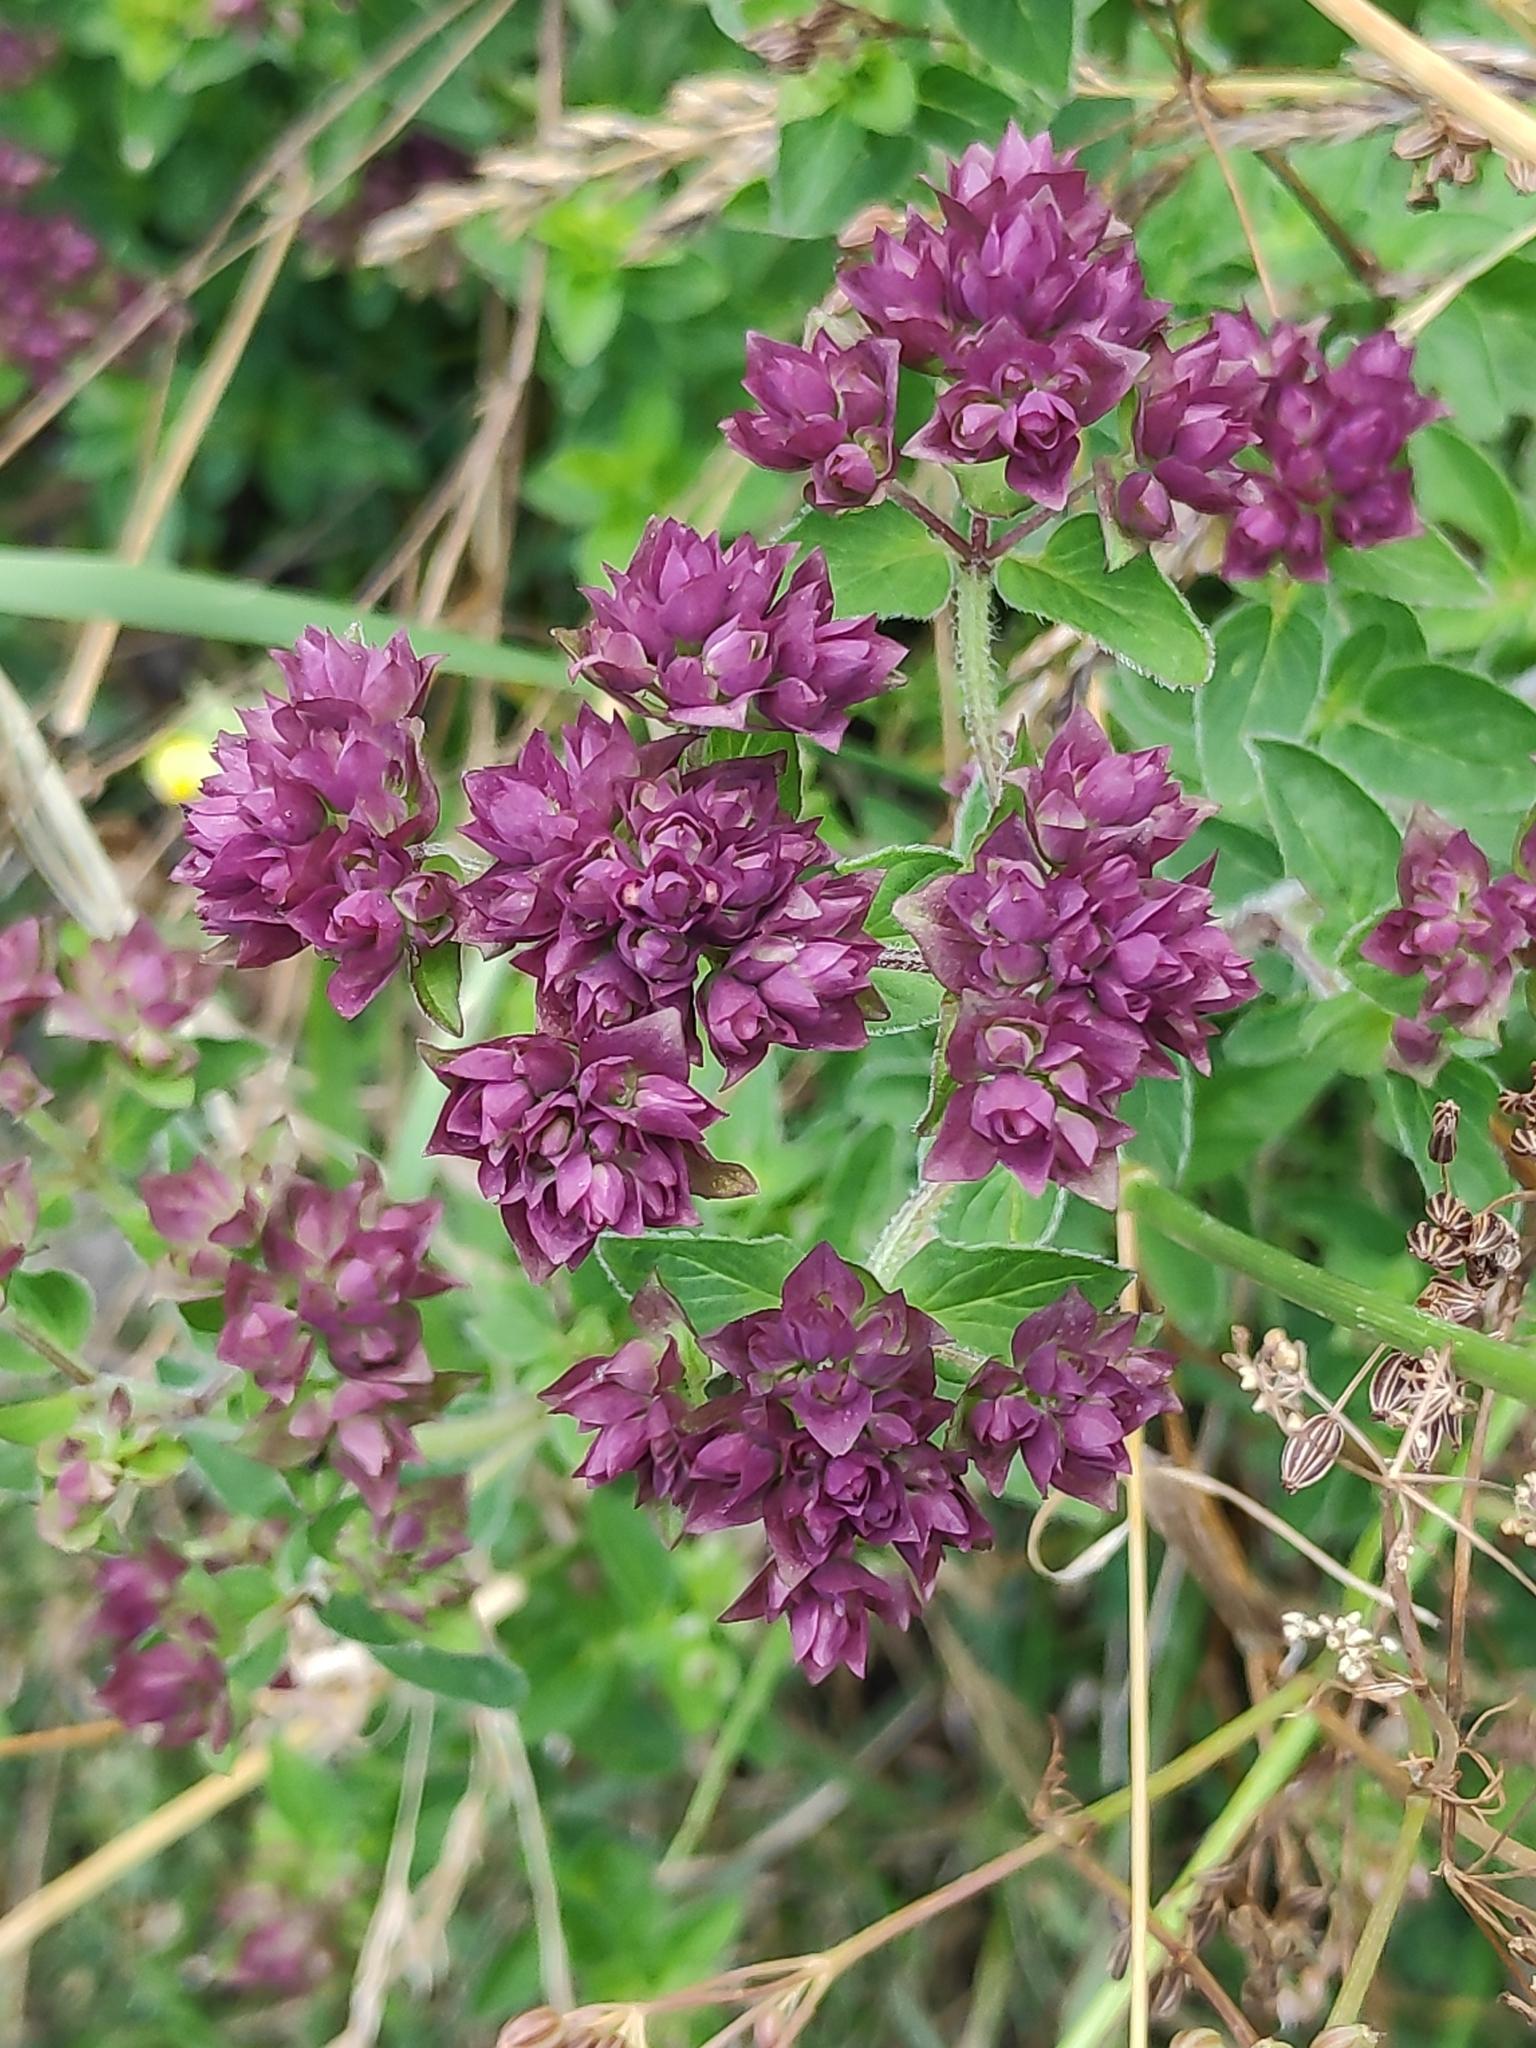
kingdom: Plantae
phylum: Tracheophyta
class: Magnoliopsida
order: Lamiales
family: Lamiaceae
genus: Origanum
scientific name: Origanum vulgare
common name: Wild marjoram
